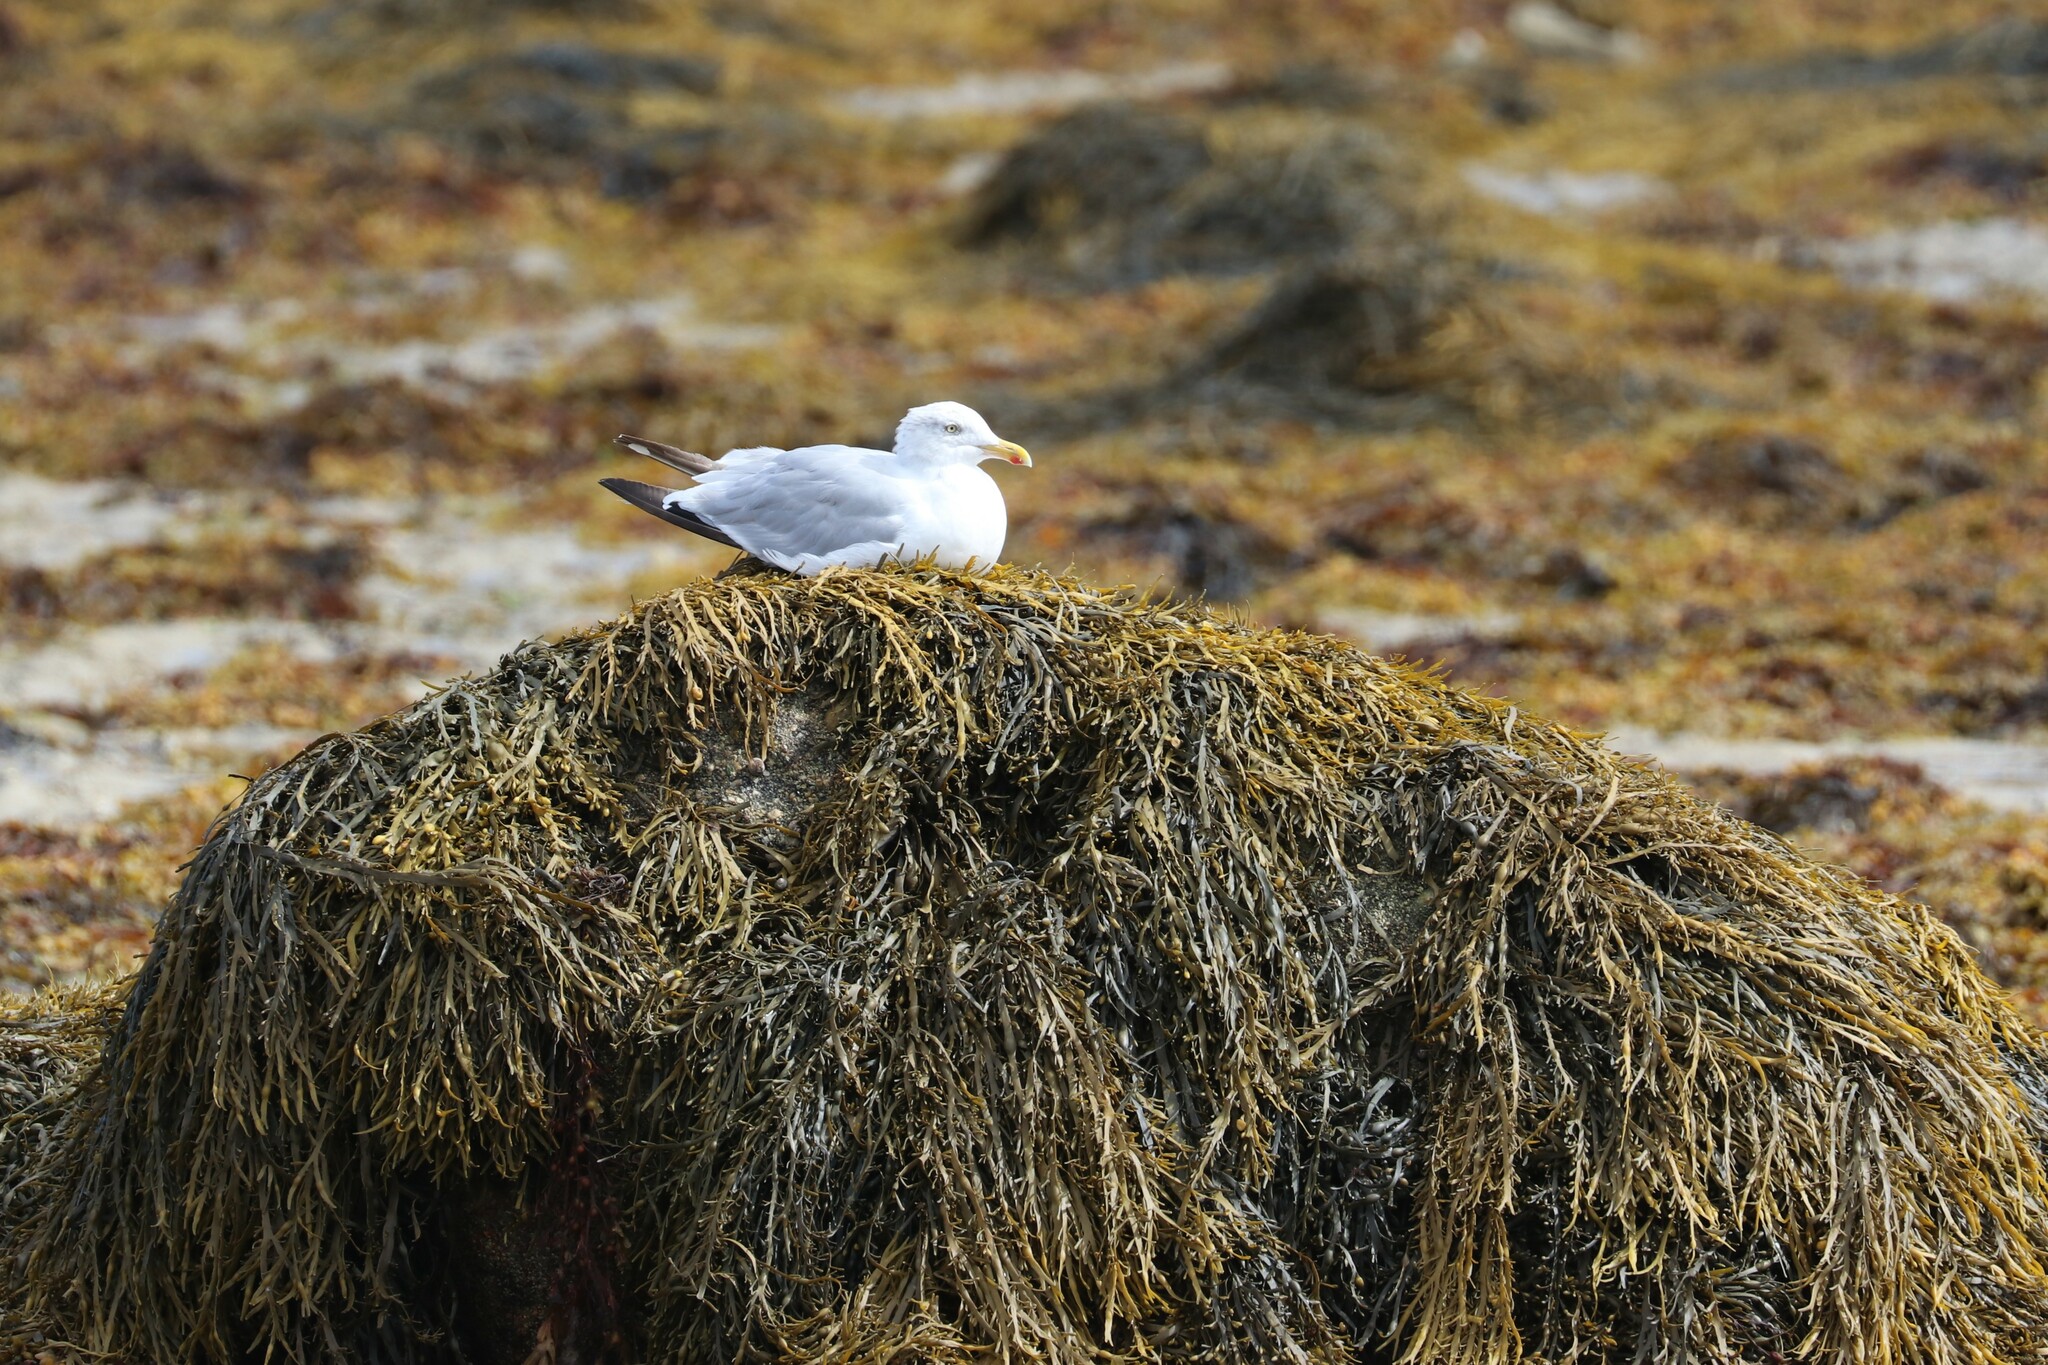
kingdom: Animalia
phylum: Chordata
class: Aves
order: Charadriiformes
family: Laridae
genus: Larus
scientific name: Larus argentatus
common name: Herring gull
